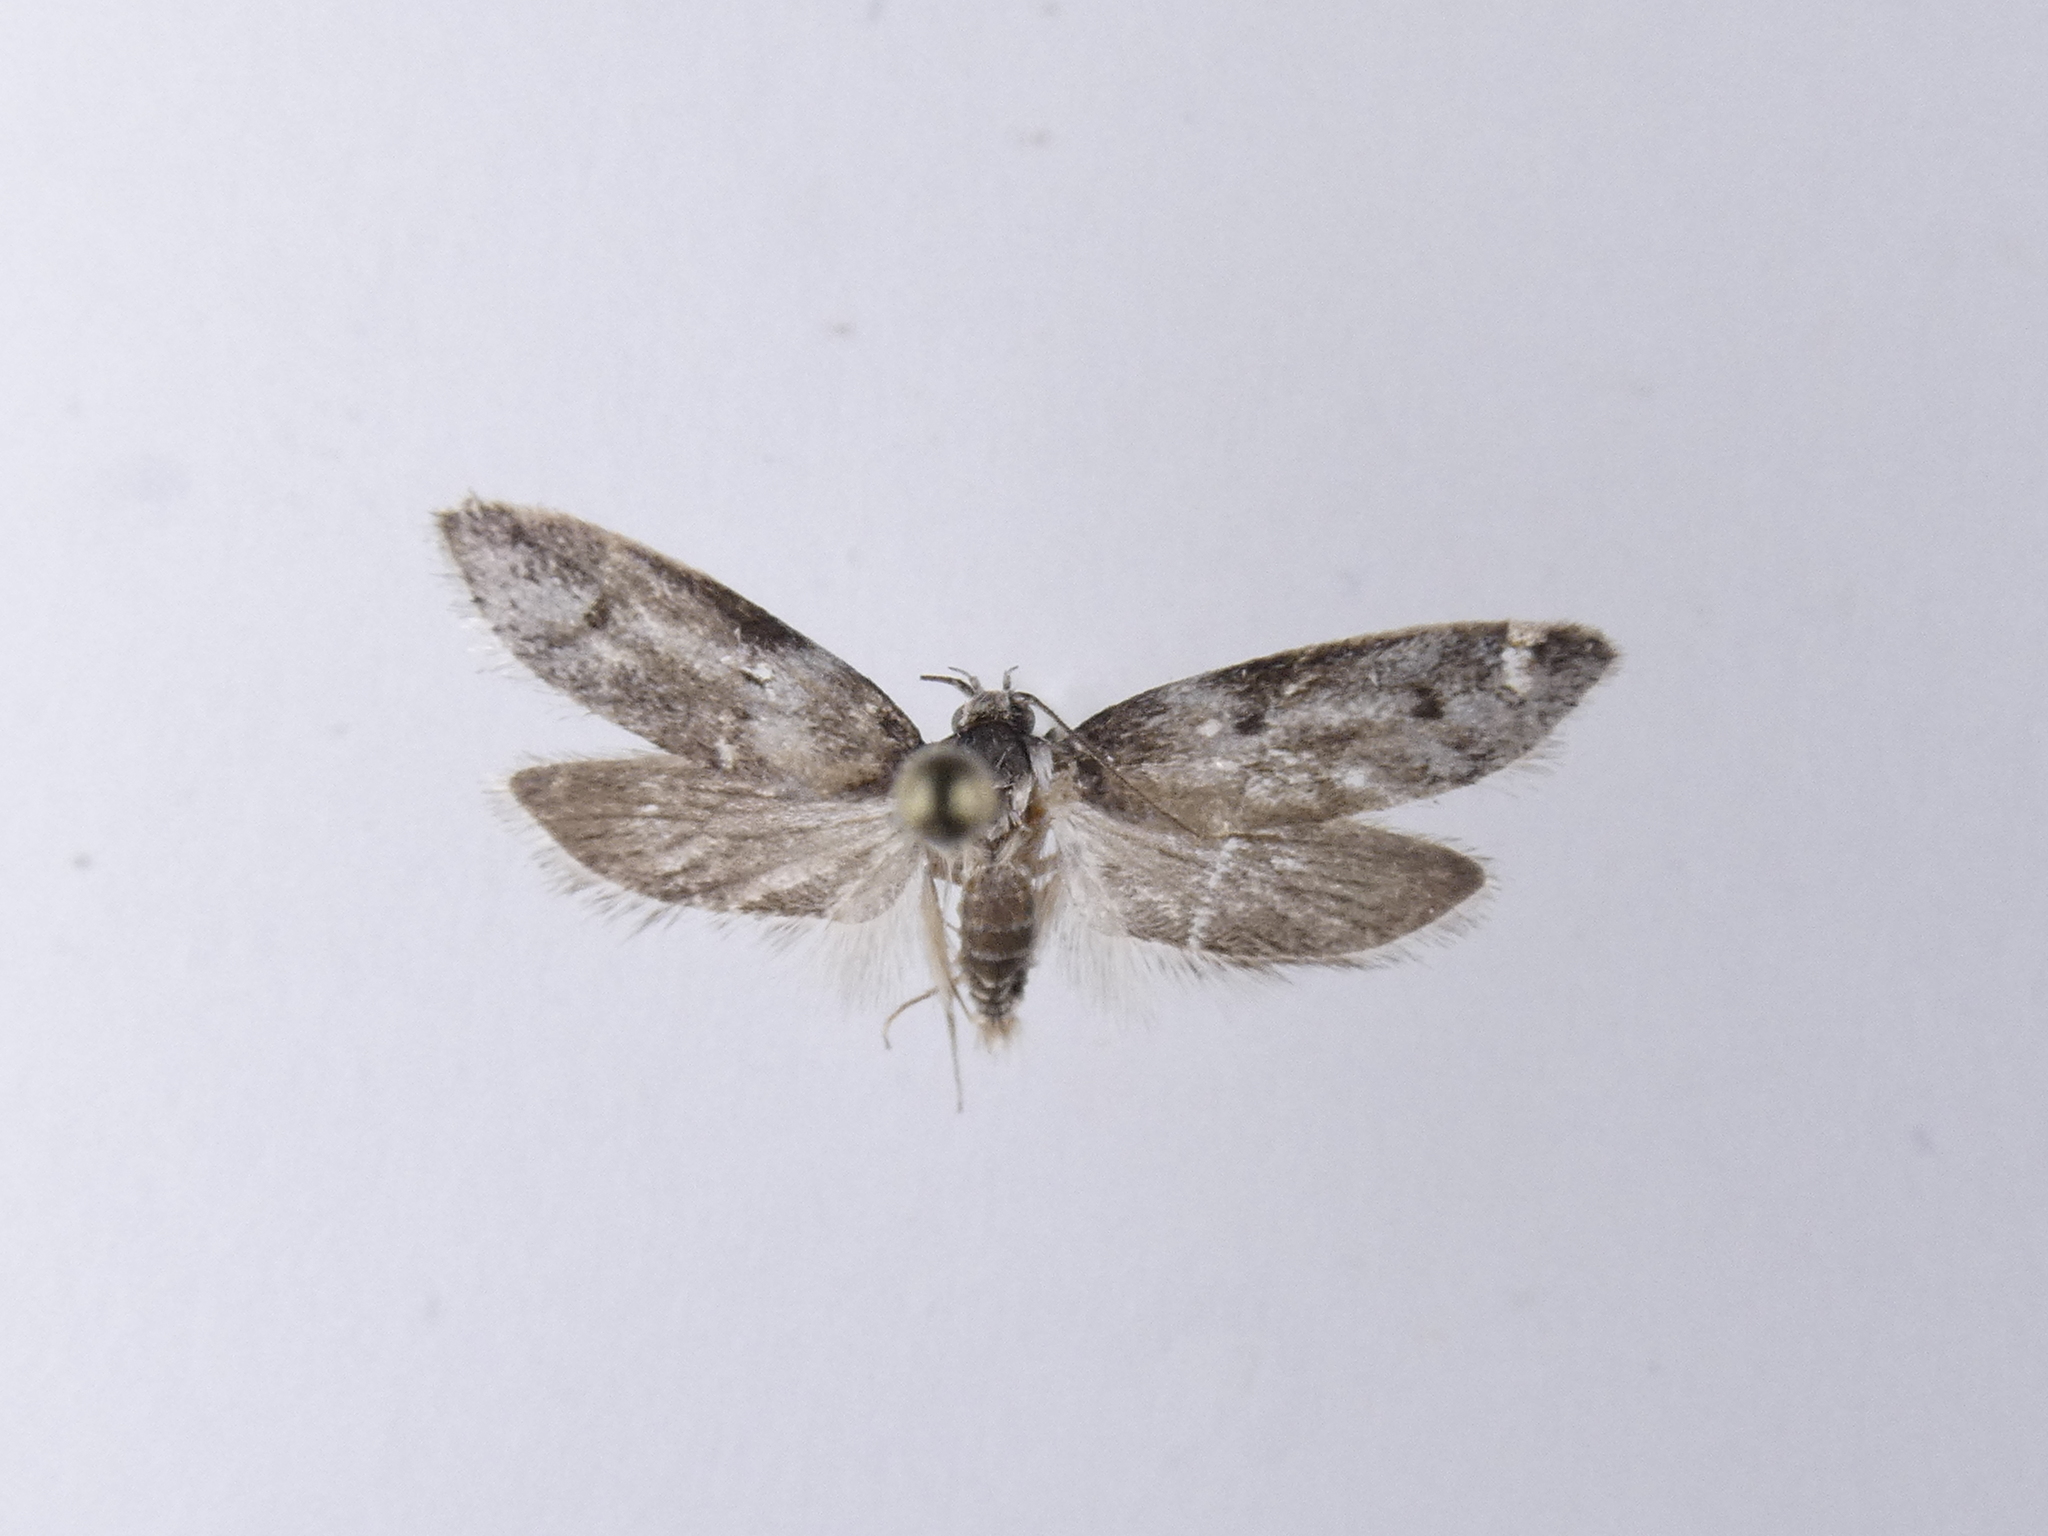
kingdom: Animalia
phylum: Arthropoda
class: Insecta
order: Lepidoptera
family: Oecophoridae
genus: Trachypepla
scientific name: Trachypepla indolescens
